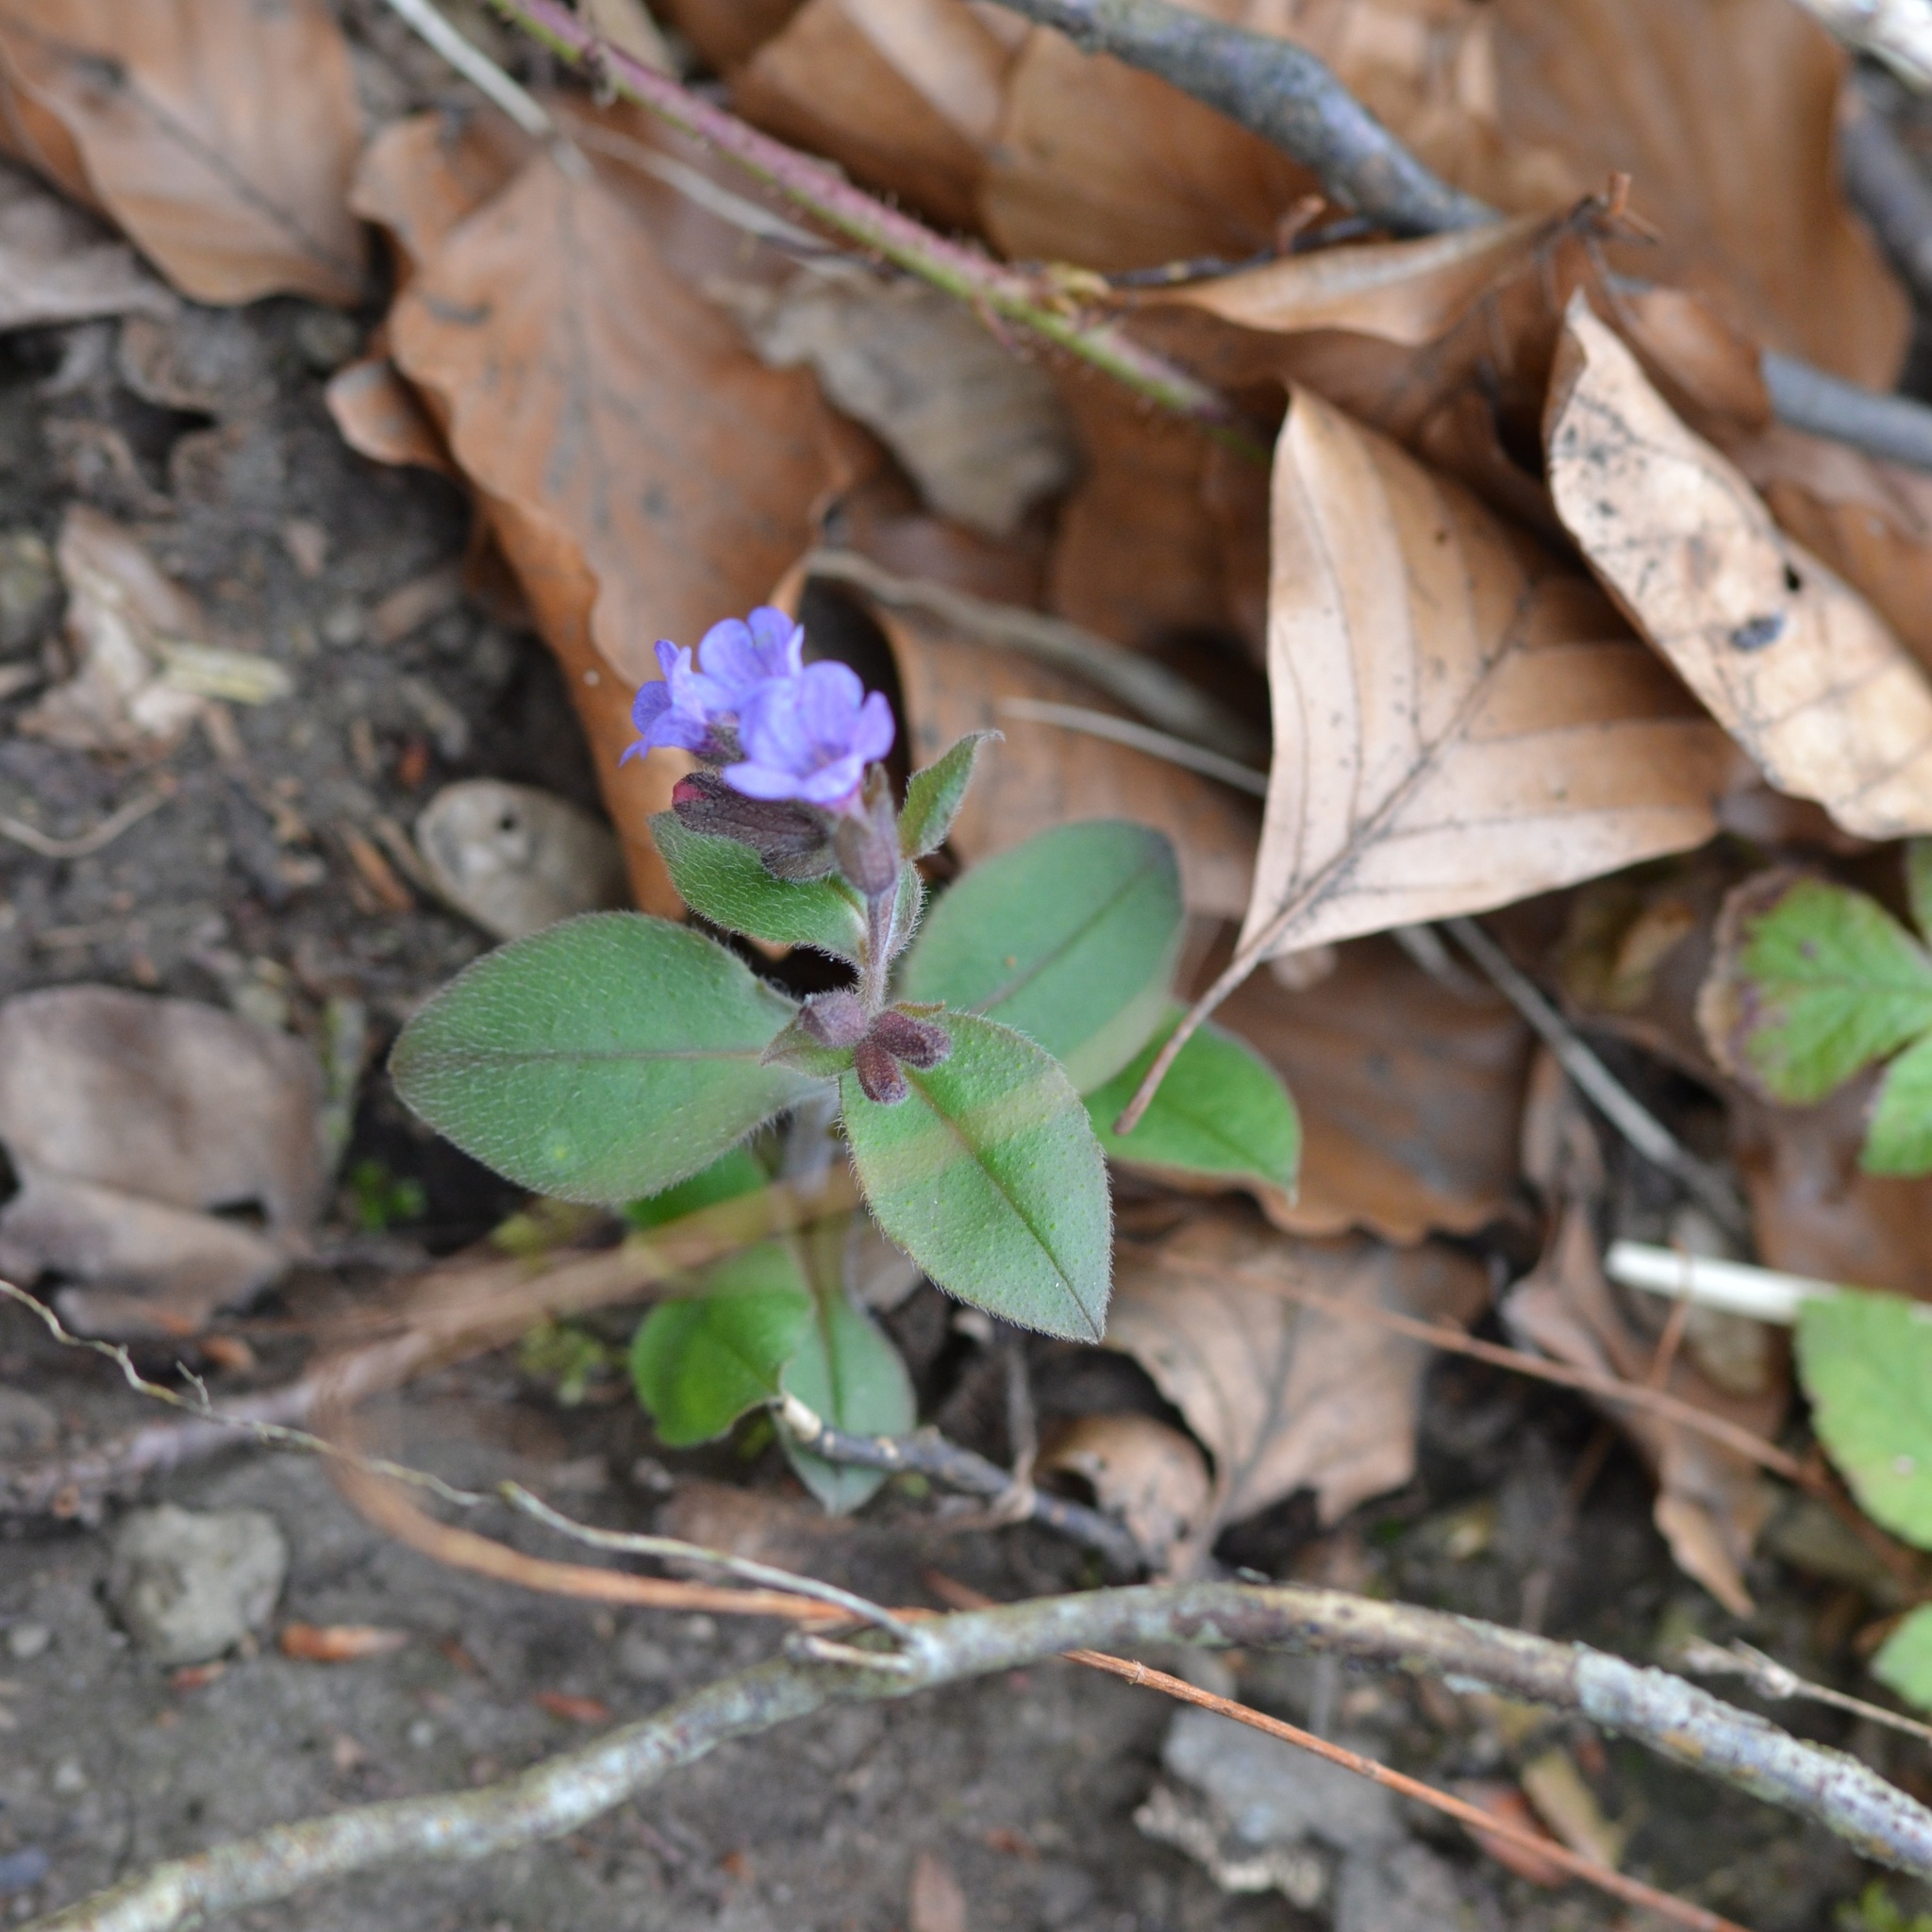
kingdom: Plantae
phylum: Tracheophyta
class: Magnoliopsida
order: Boraginales
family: Boraginaceae
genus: Pulmonaria
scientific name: Pulmonaria obscura
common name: Suffolk lungwort
